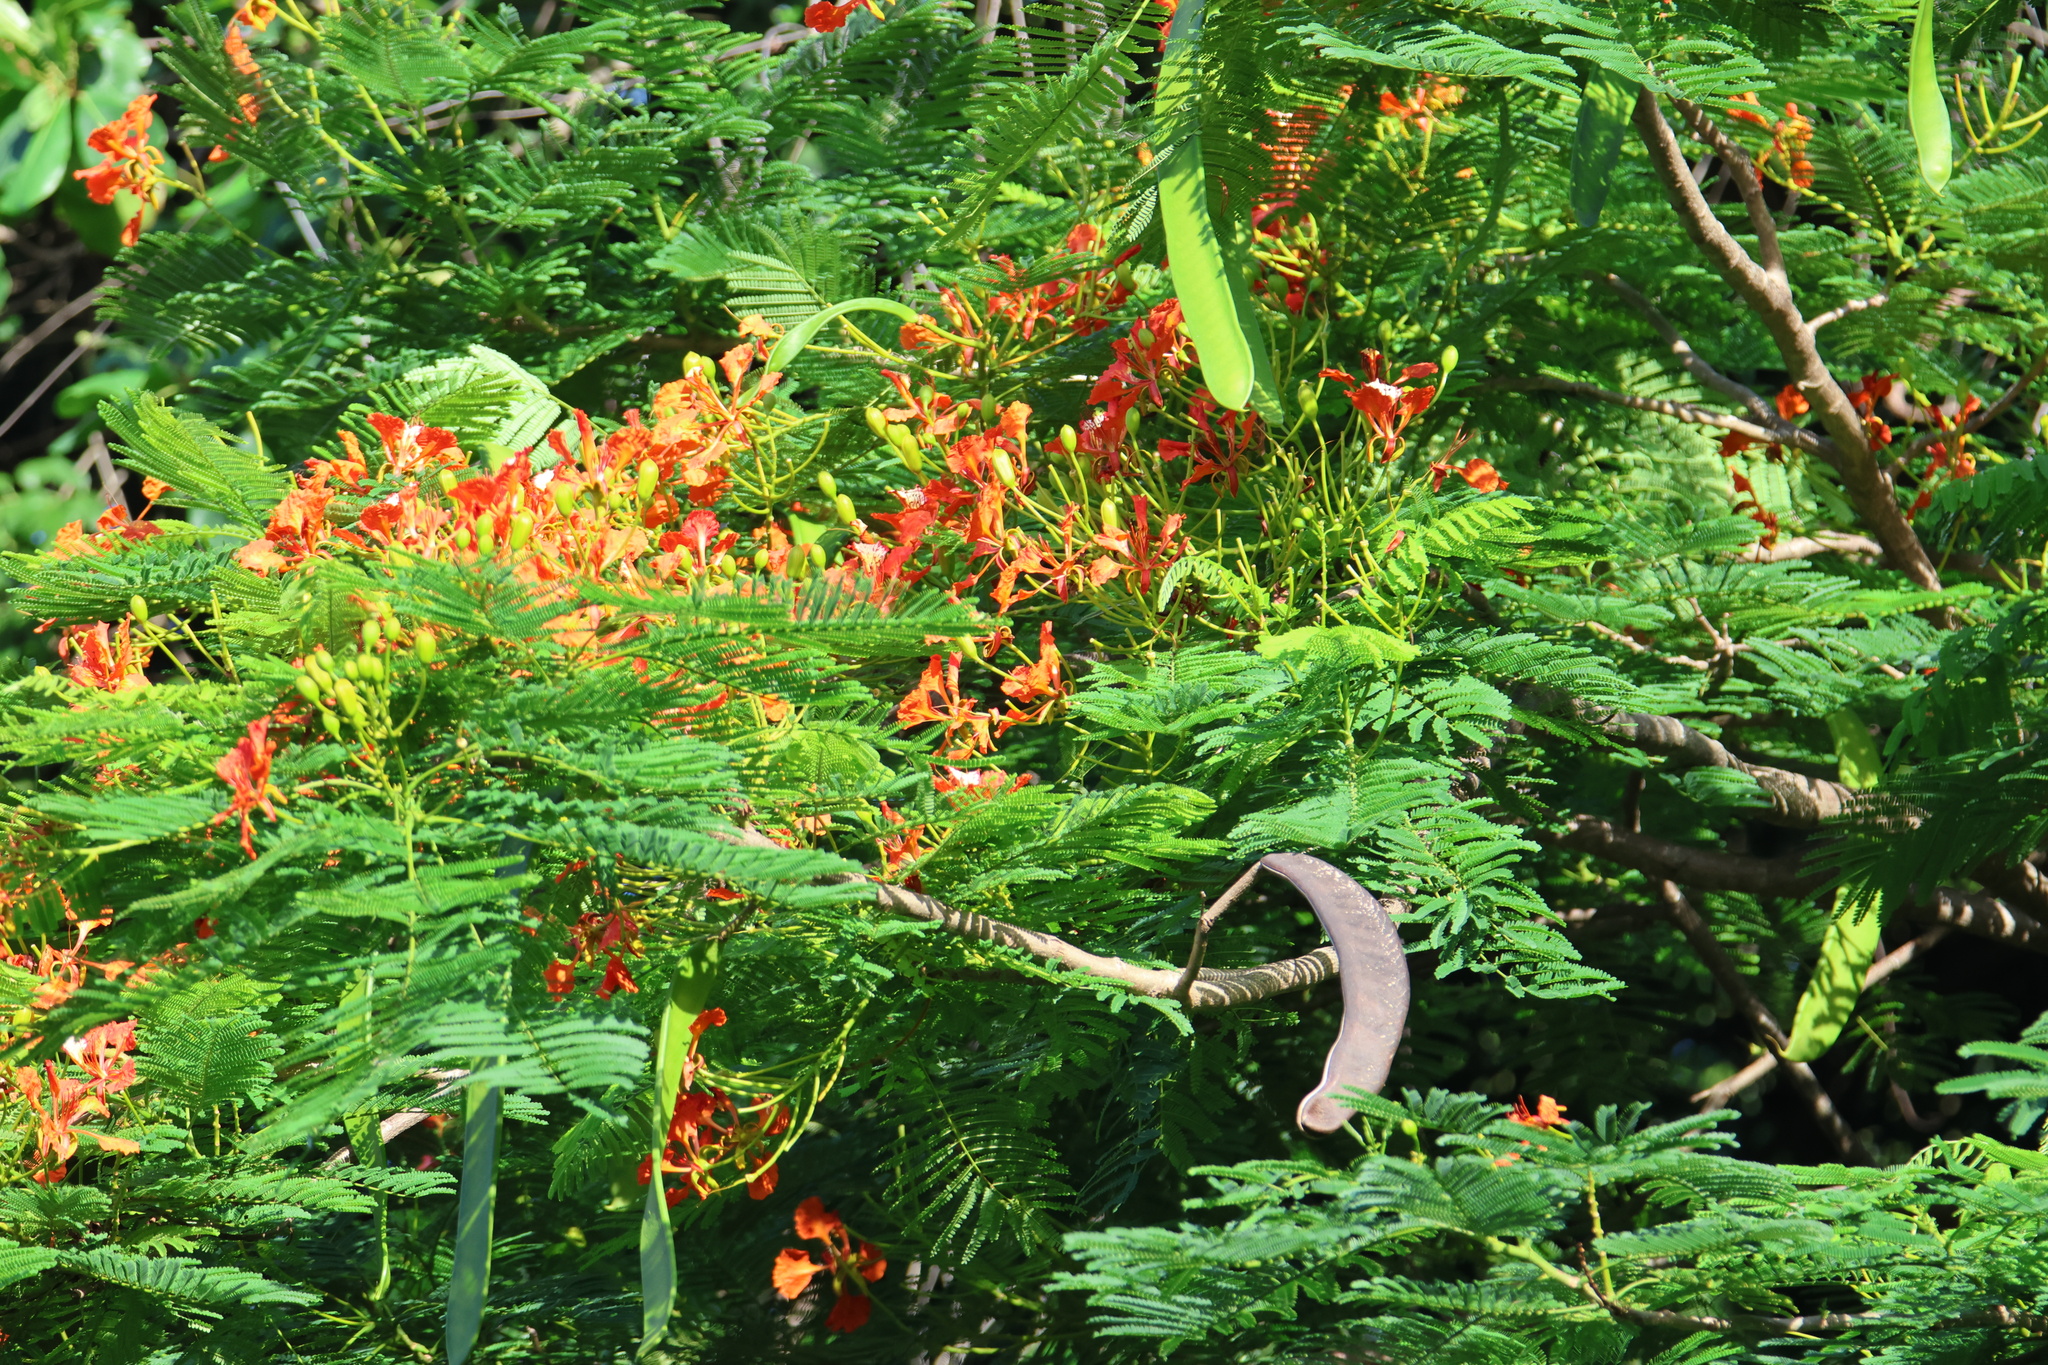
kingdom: Plantae
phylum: Tracheophyta
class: Magnoliopsida
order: Fabales
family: Fabaceae
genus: Delonix
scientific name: Delonix regia
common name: Royal poinciana
